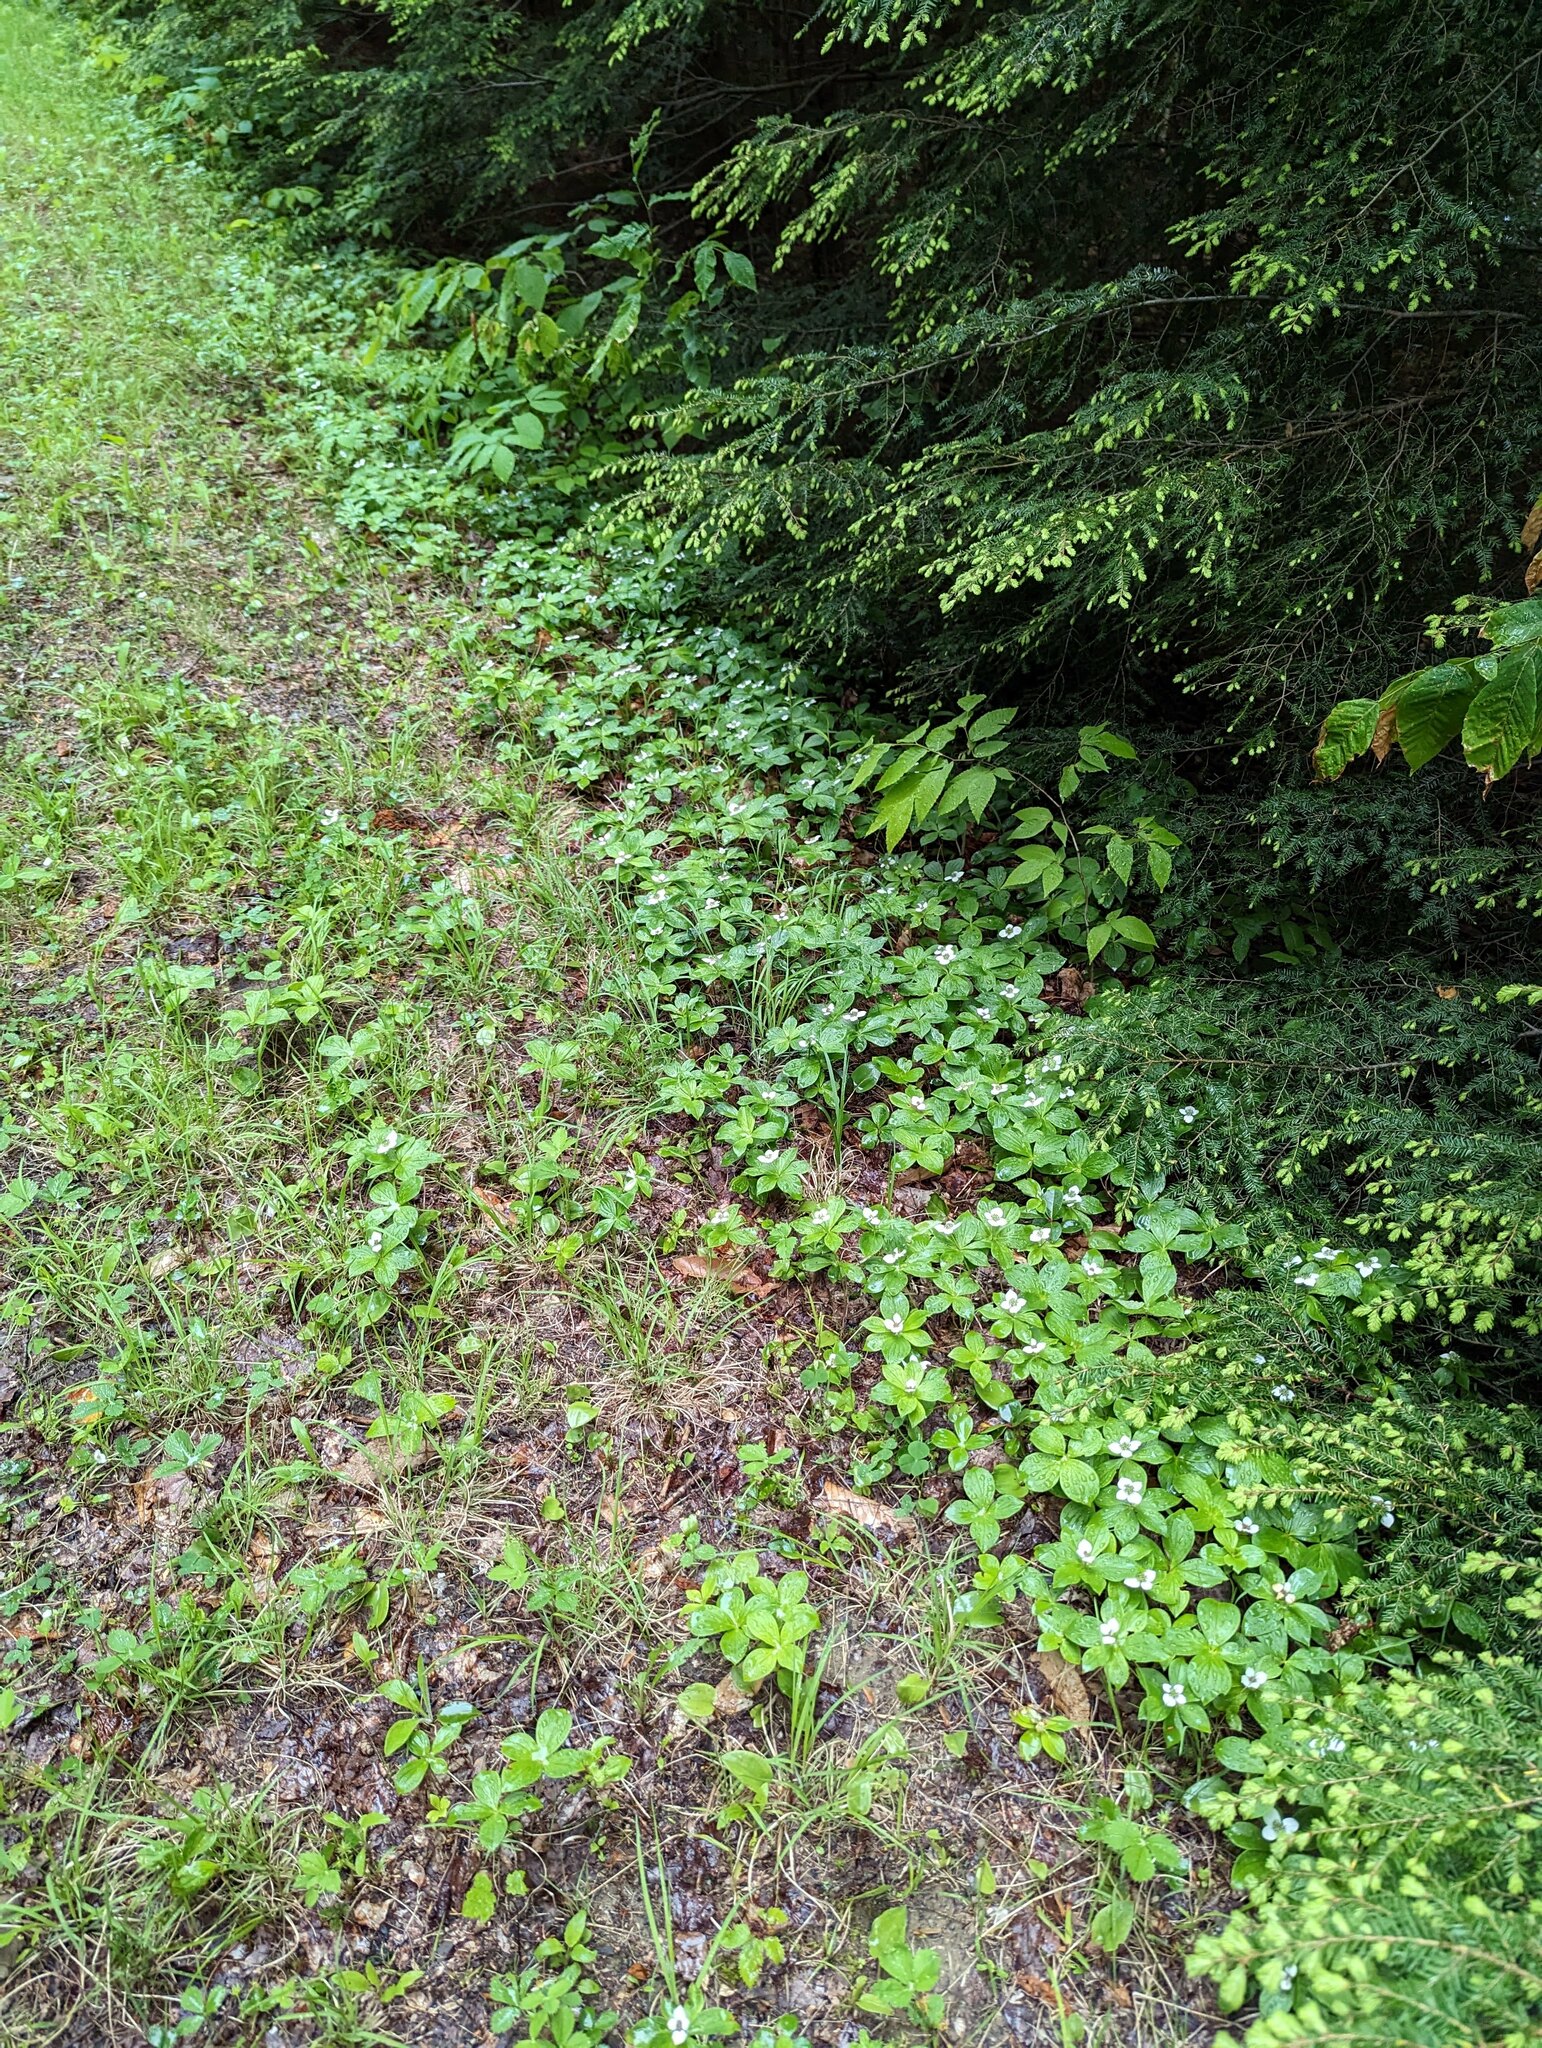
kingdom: Plantae
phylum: Tracheophyta
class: Magnoliopsida
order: Cornales
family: Cornaceae
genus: Cornus
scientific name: Cornus canadensis
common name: Creeping dogwood
